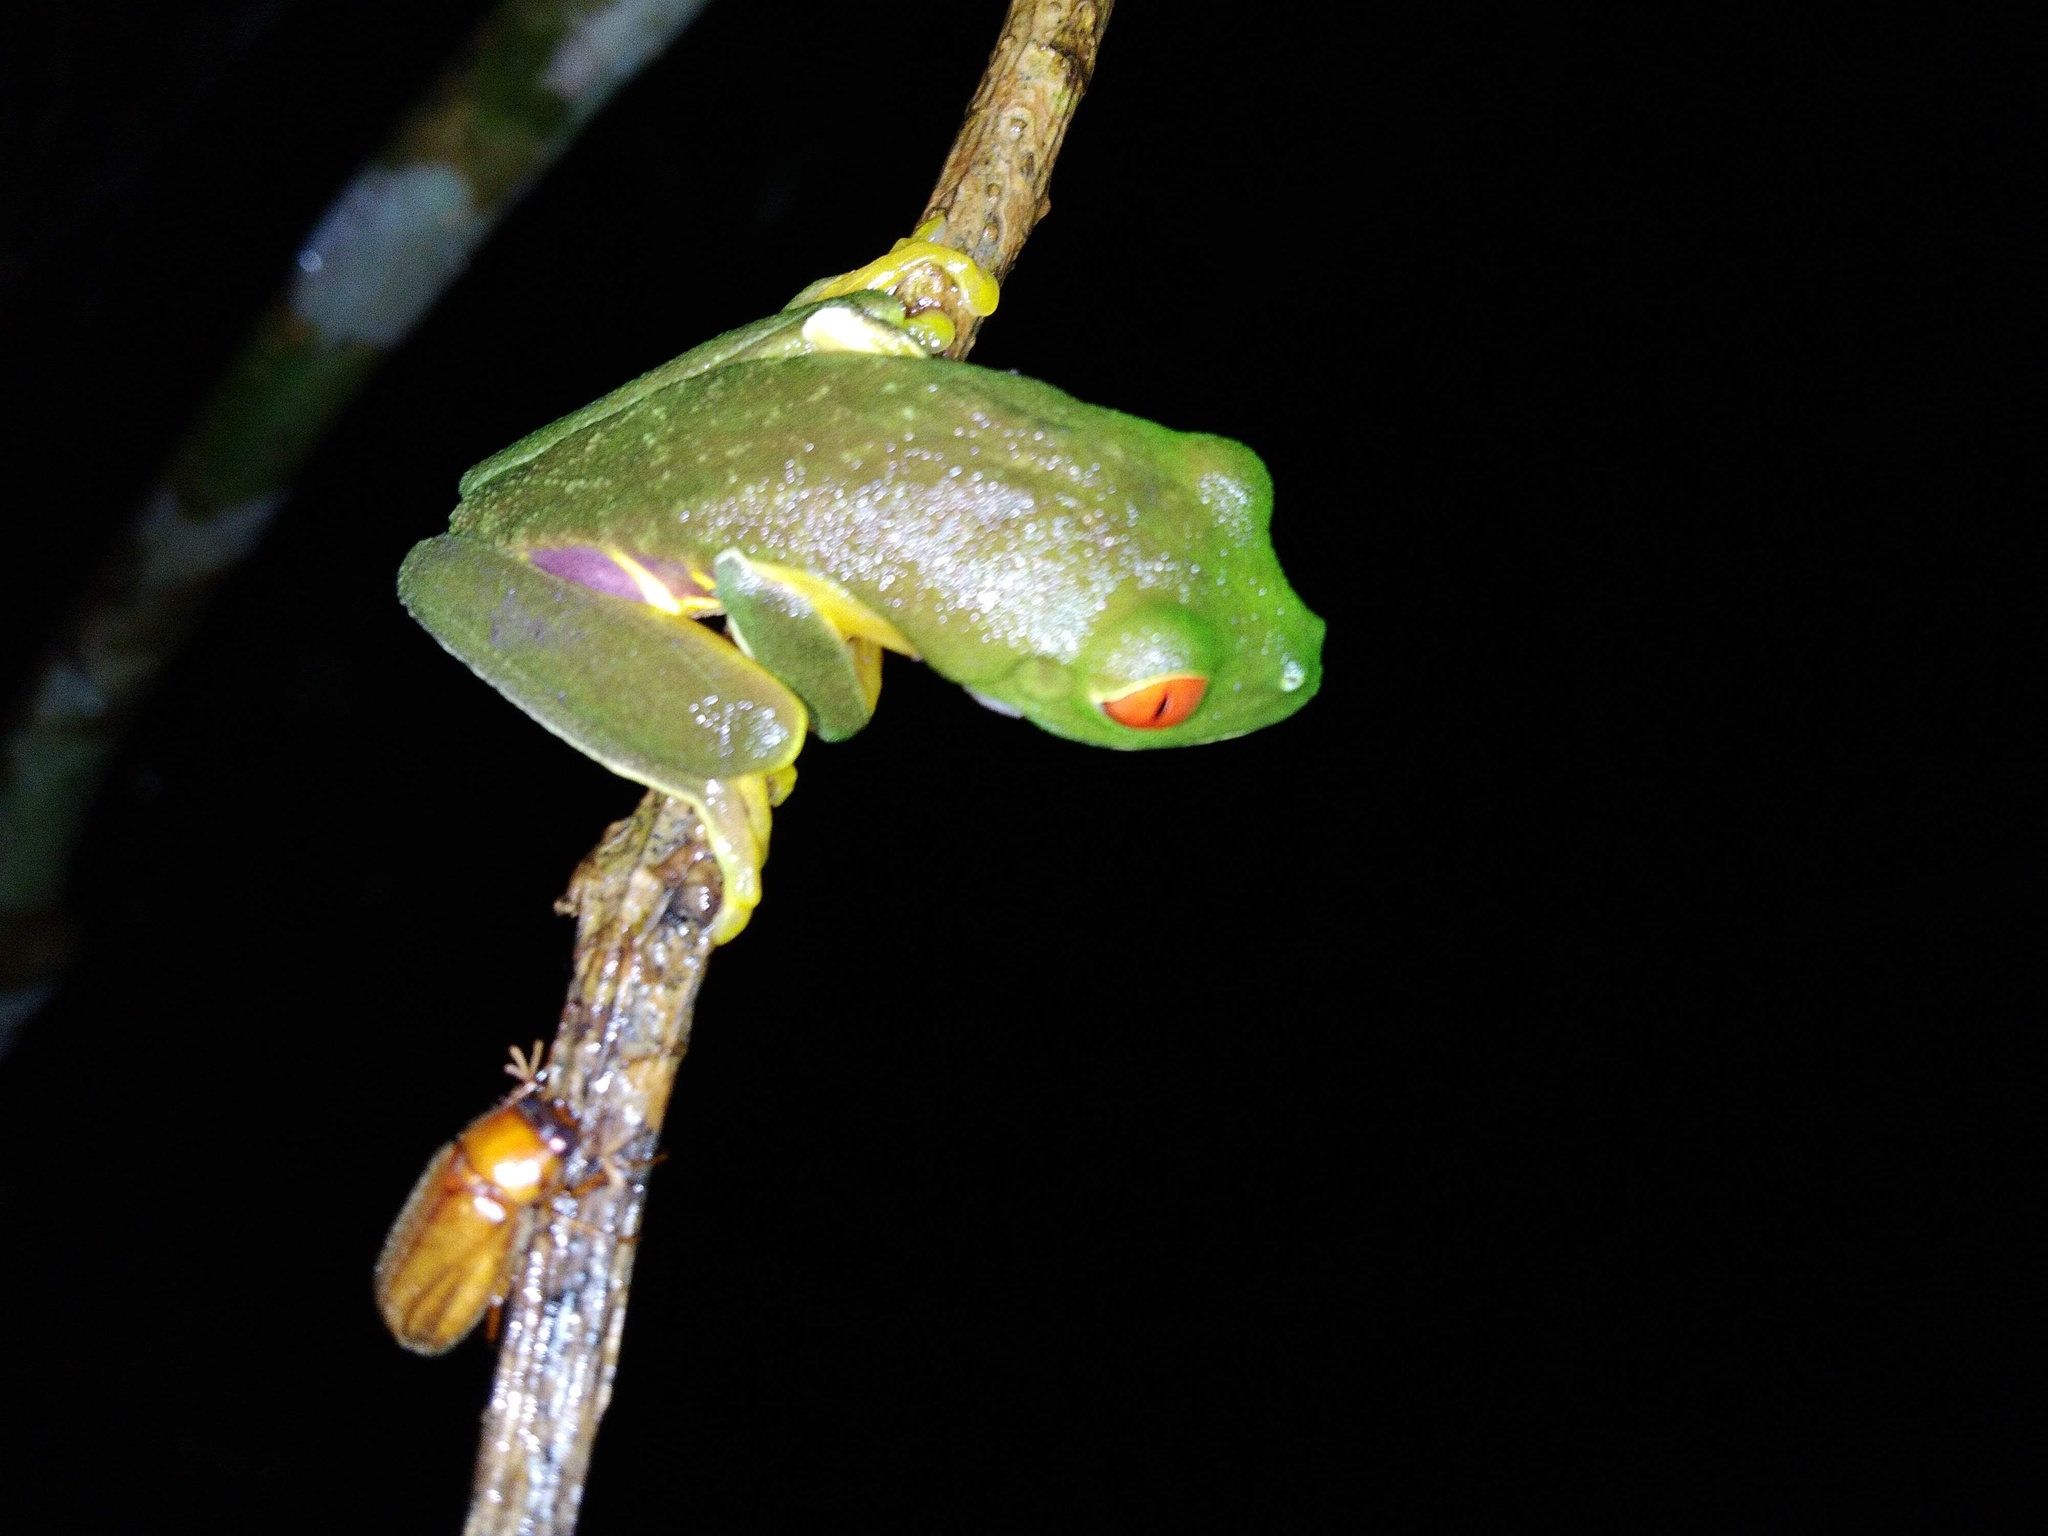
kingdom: Animalia
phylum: Chordata
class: Amphibia
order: Anura
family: Phyllomedusidae
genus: Agalychnis
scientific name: Agalychnis
